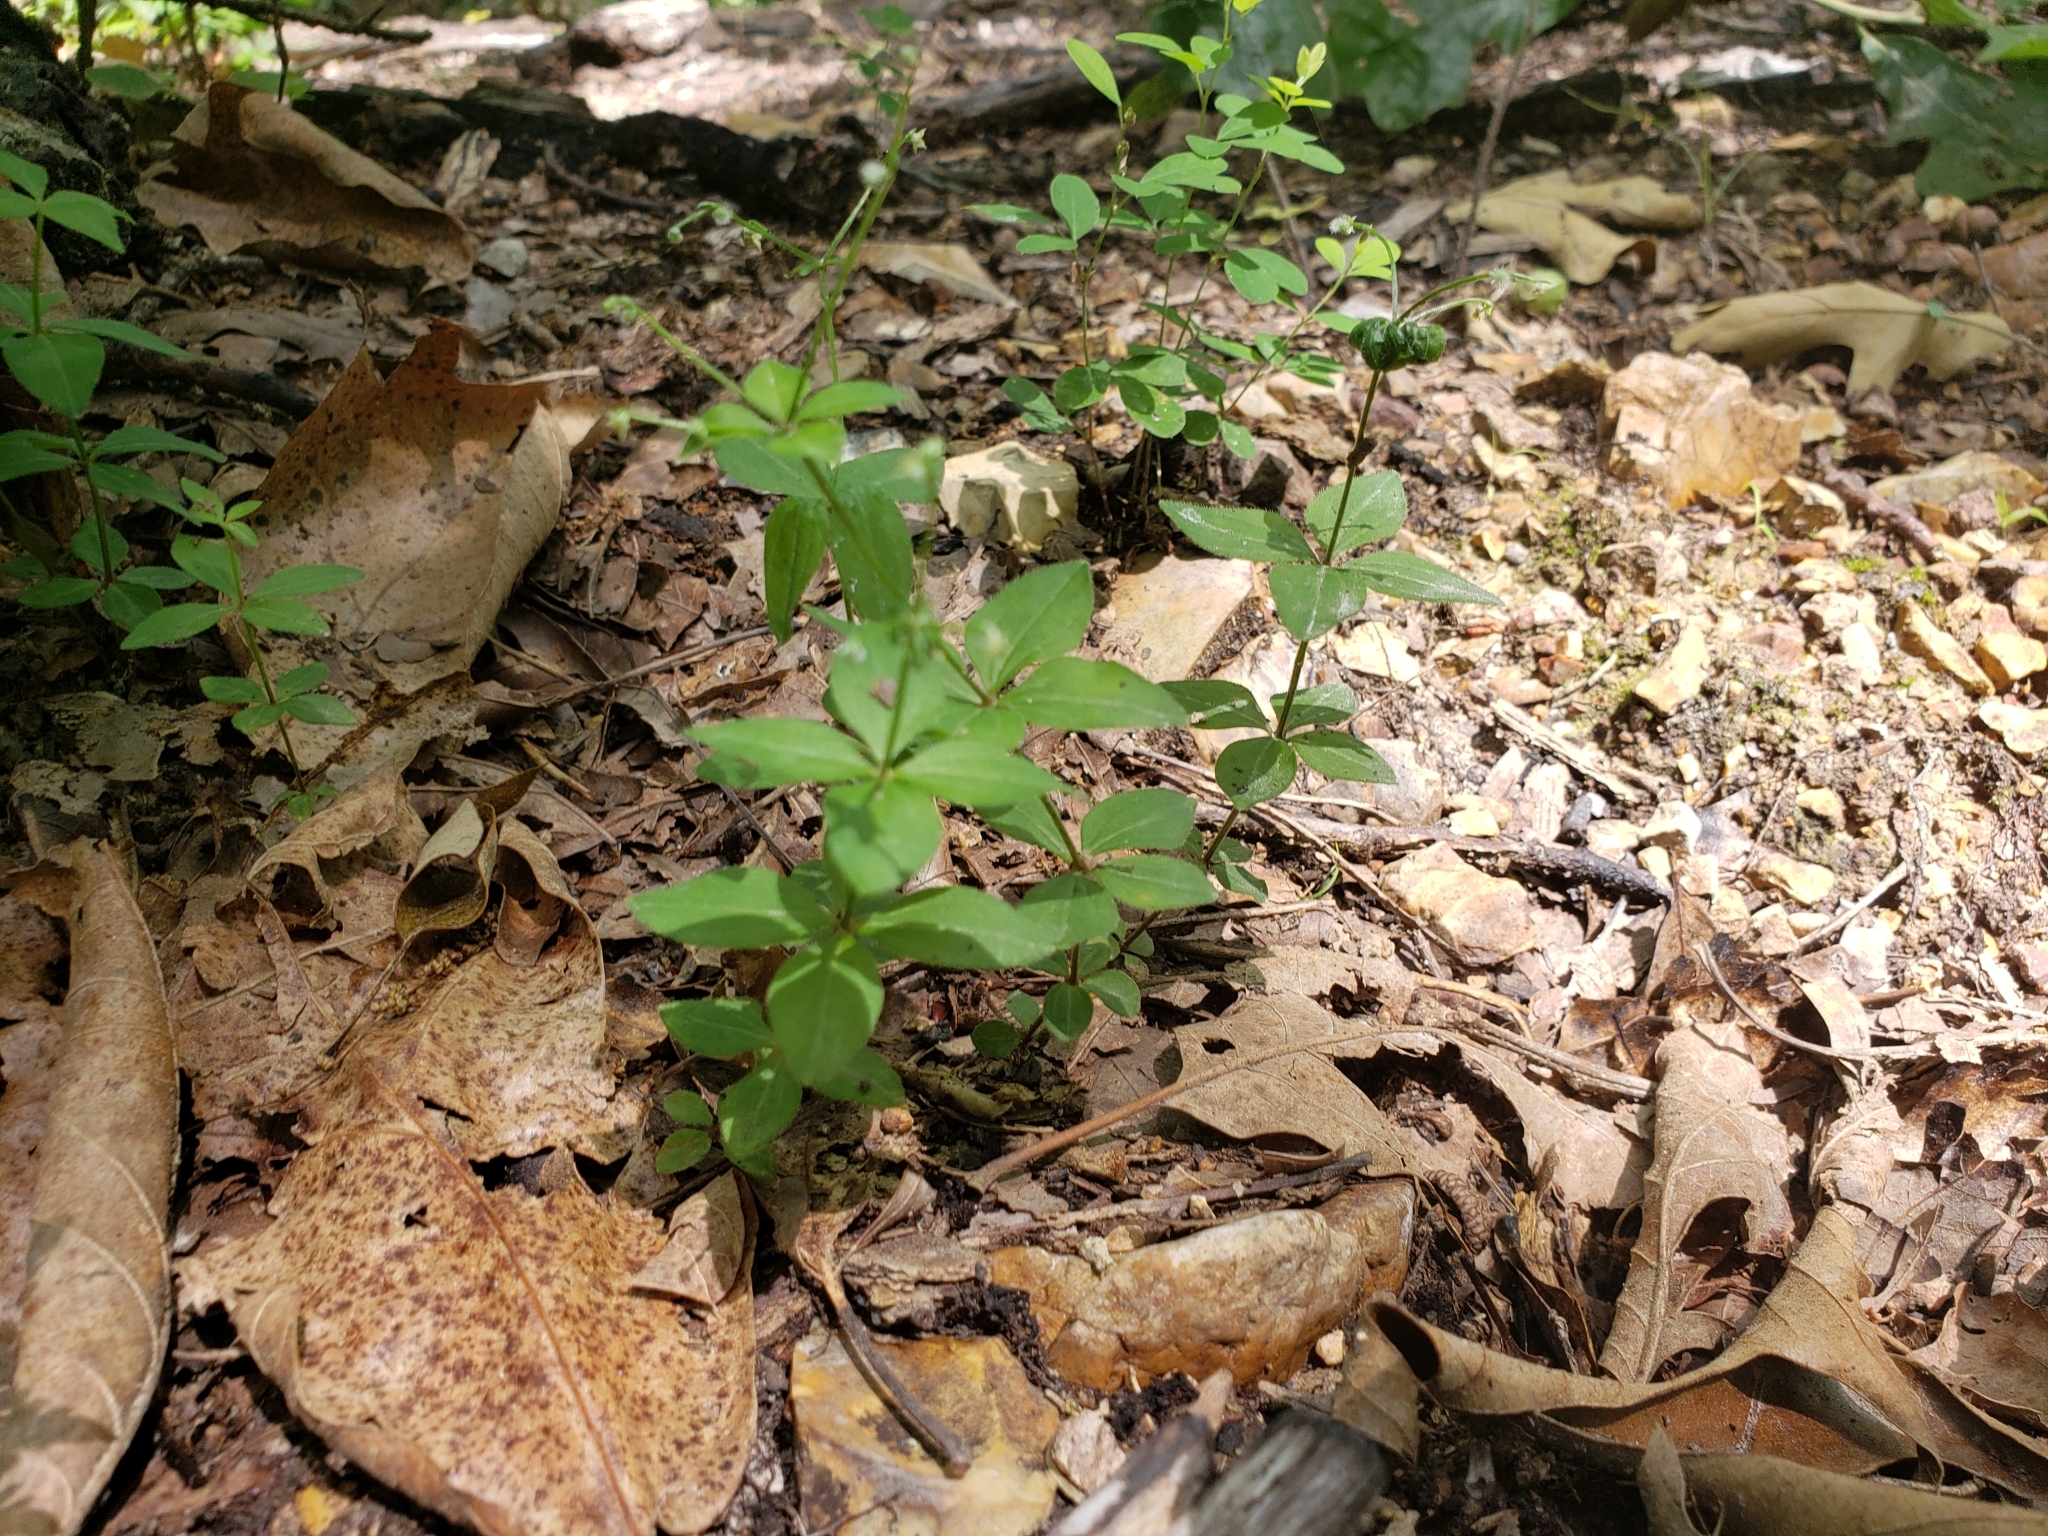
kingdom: Plantae
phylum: Tracheophyta
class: Magnoliopsida
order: Gentianales
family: Rubiaceae
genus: Galium
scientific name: Galium circaezans
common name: Forest bedstraw
